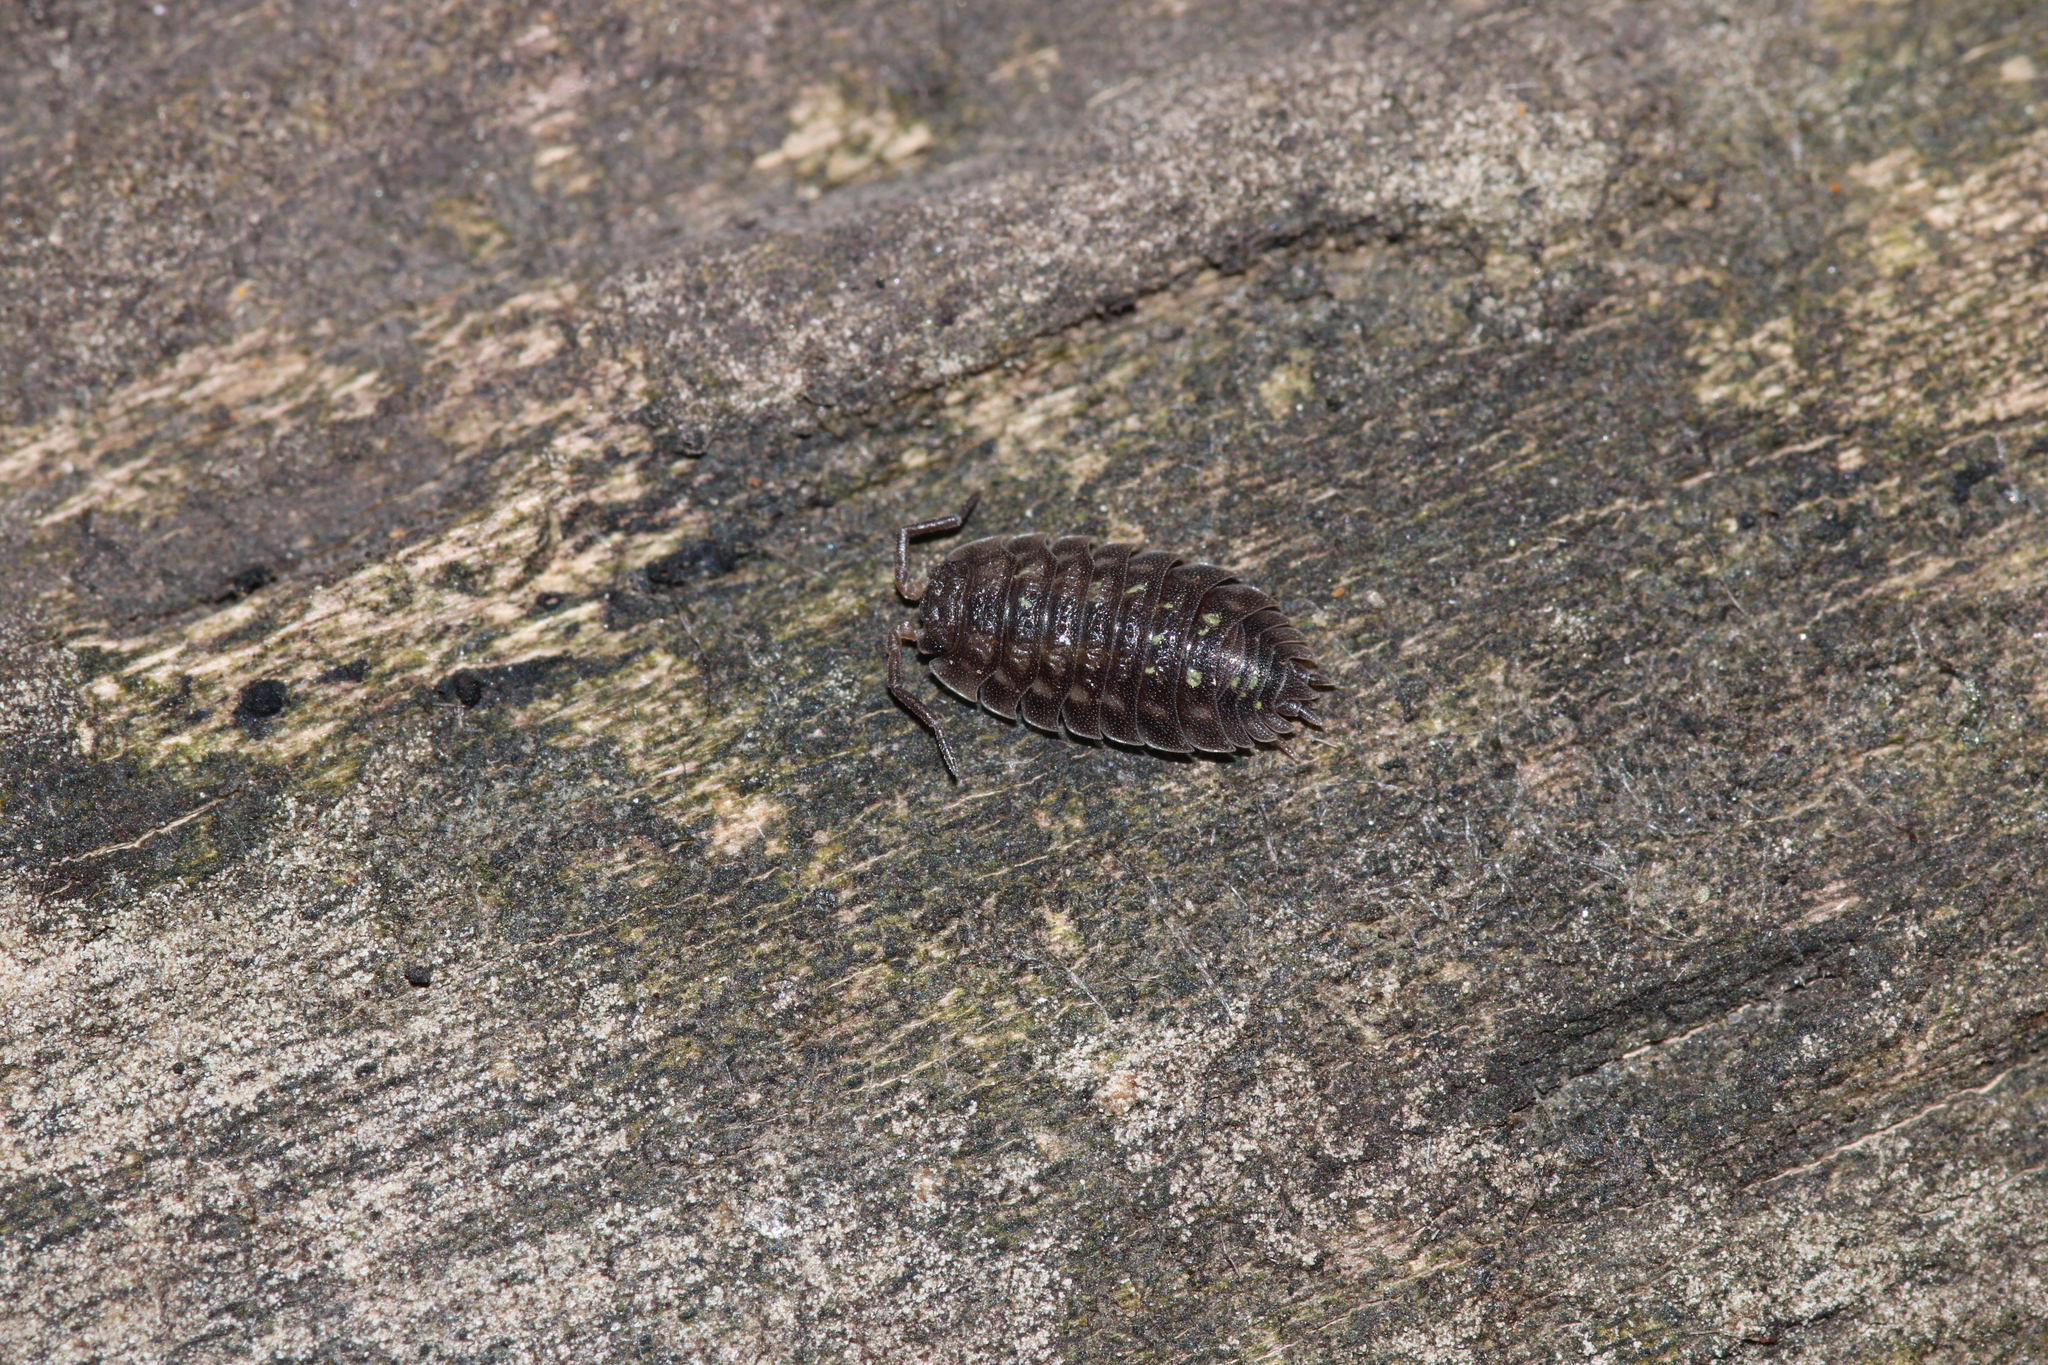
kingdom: Animalia
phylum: Arthropoda
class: Malacostraca
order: Isopoda
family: Oniscidae
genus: Oniscus
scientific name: Oniscus asellus
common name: Common shiny woodlouse
